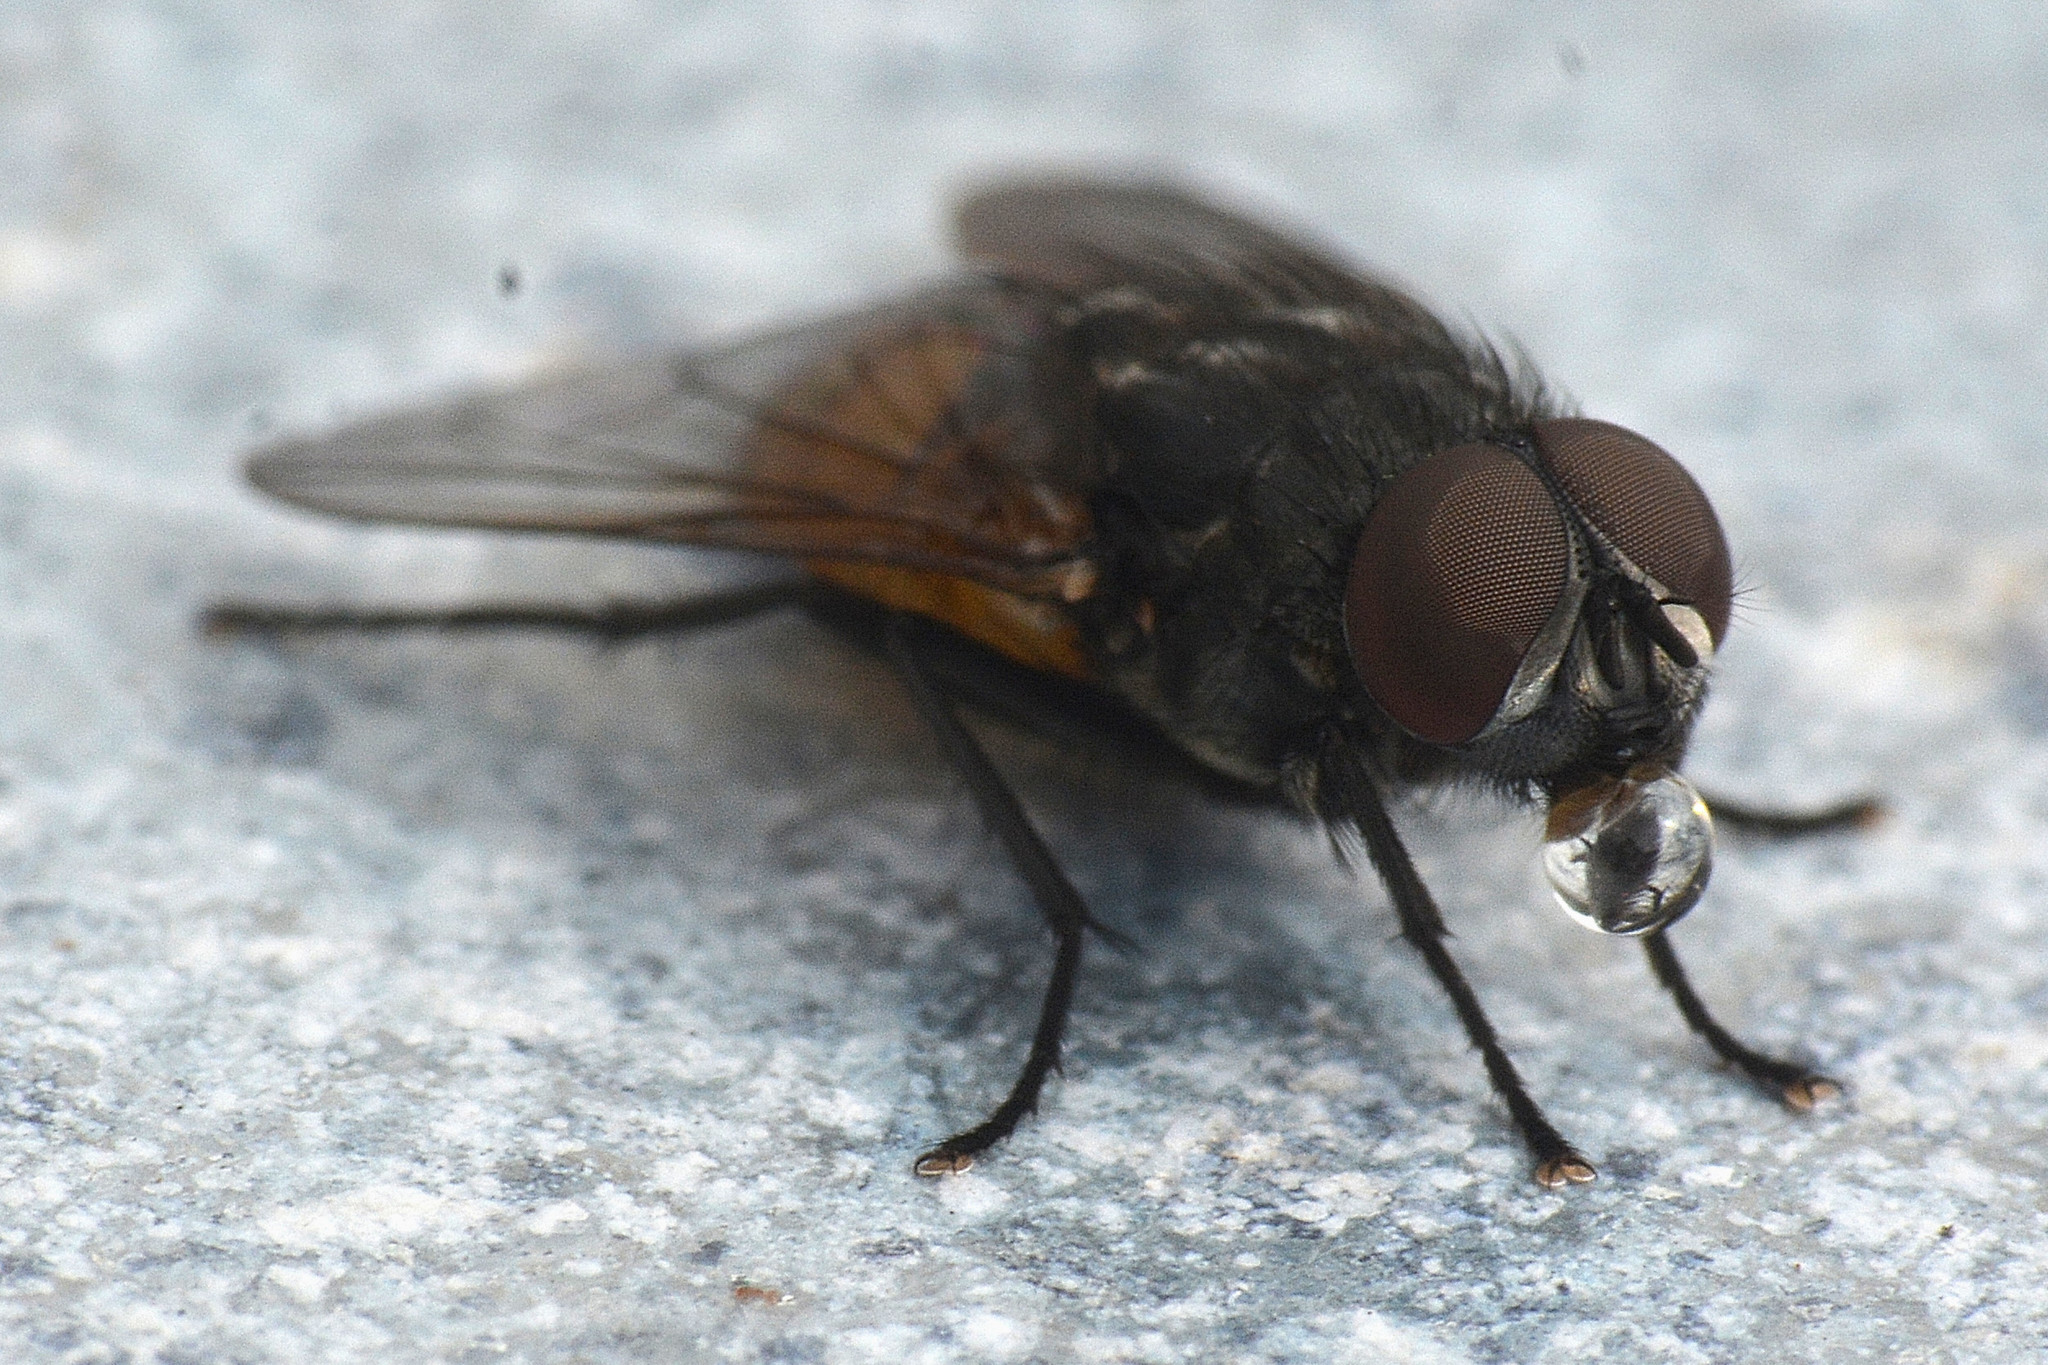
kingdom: Animalia
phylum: Arthropoda
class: Insecta
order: Diptera
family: Muscidae
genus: Musca
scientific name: Musca autumnalis
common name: Face fly
